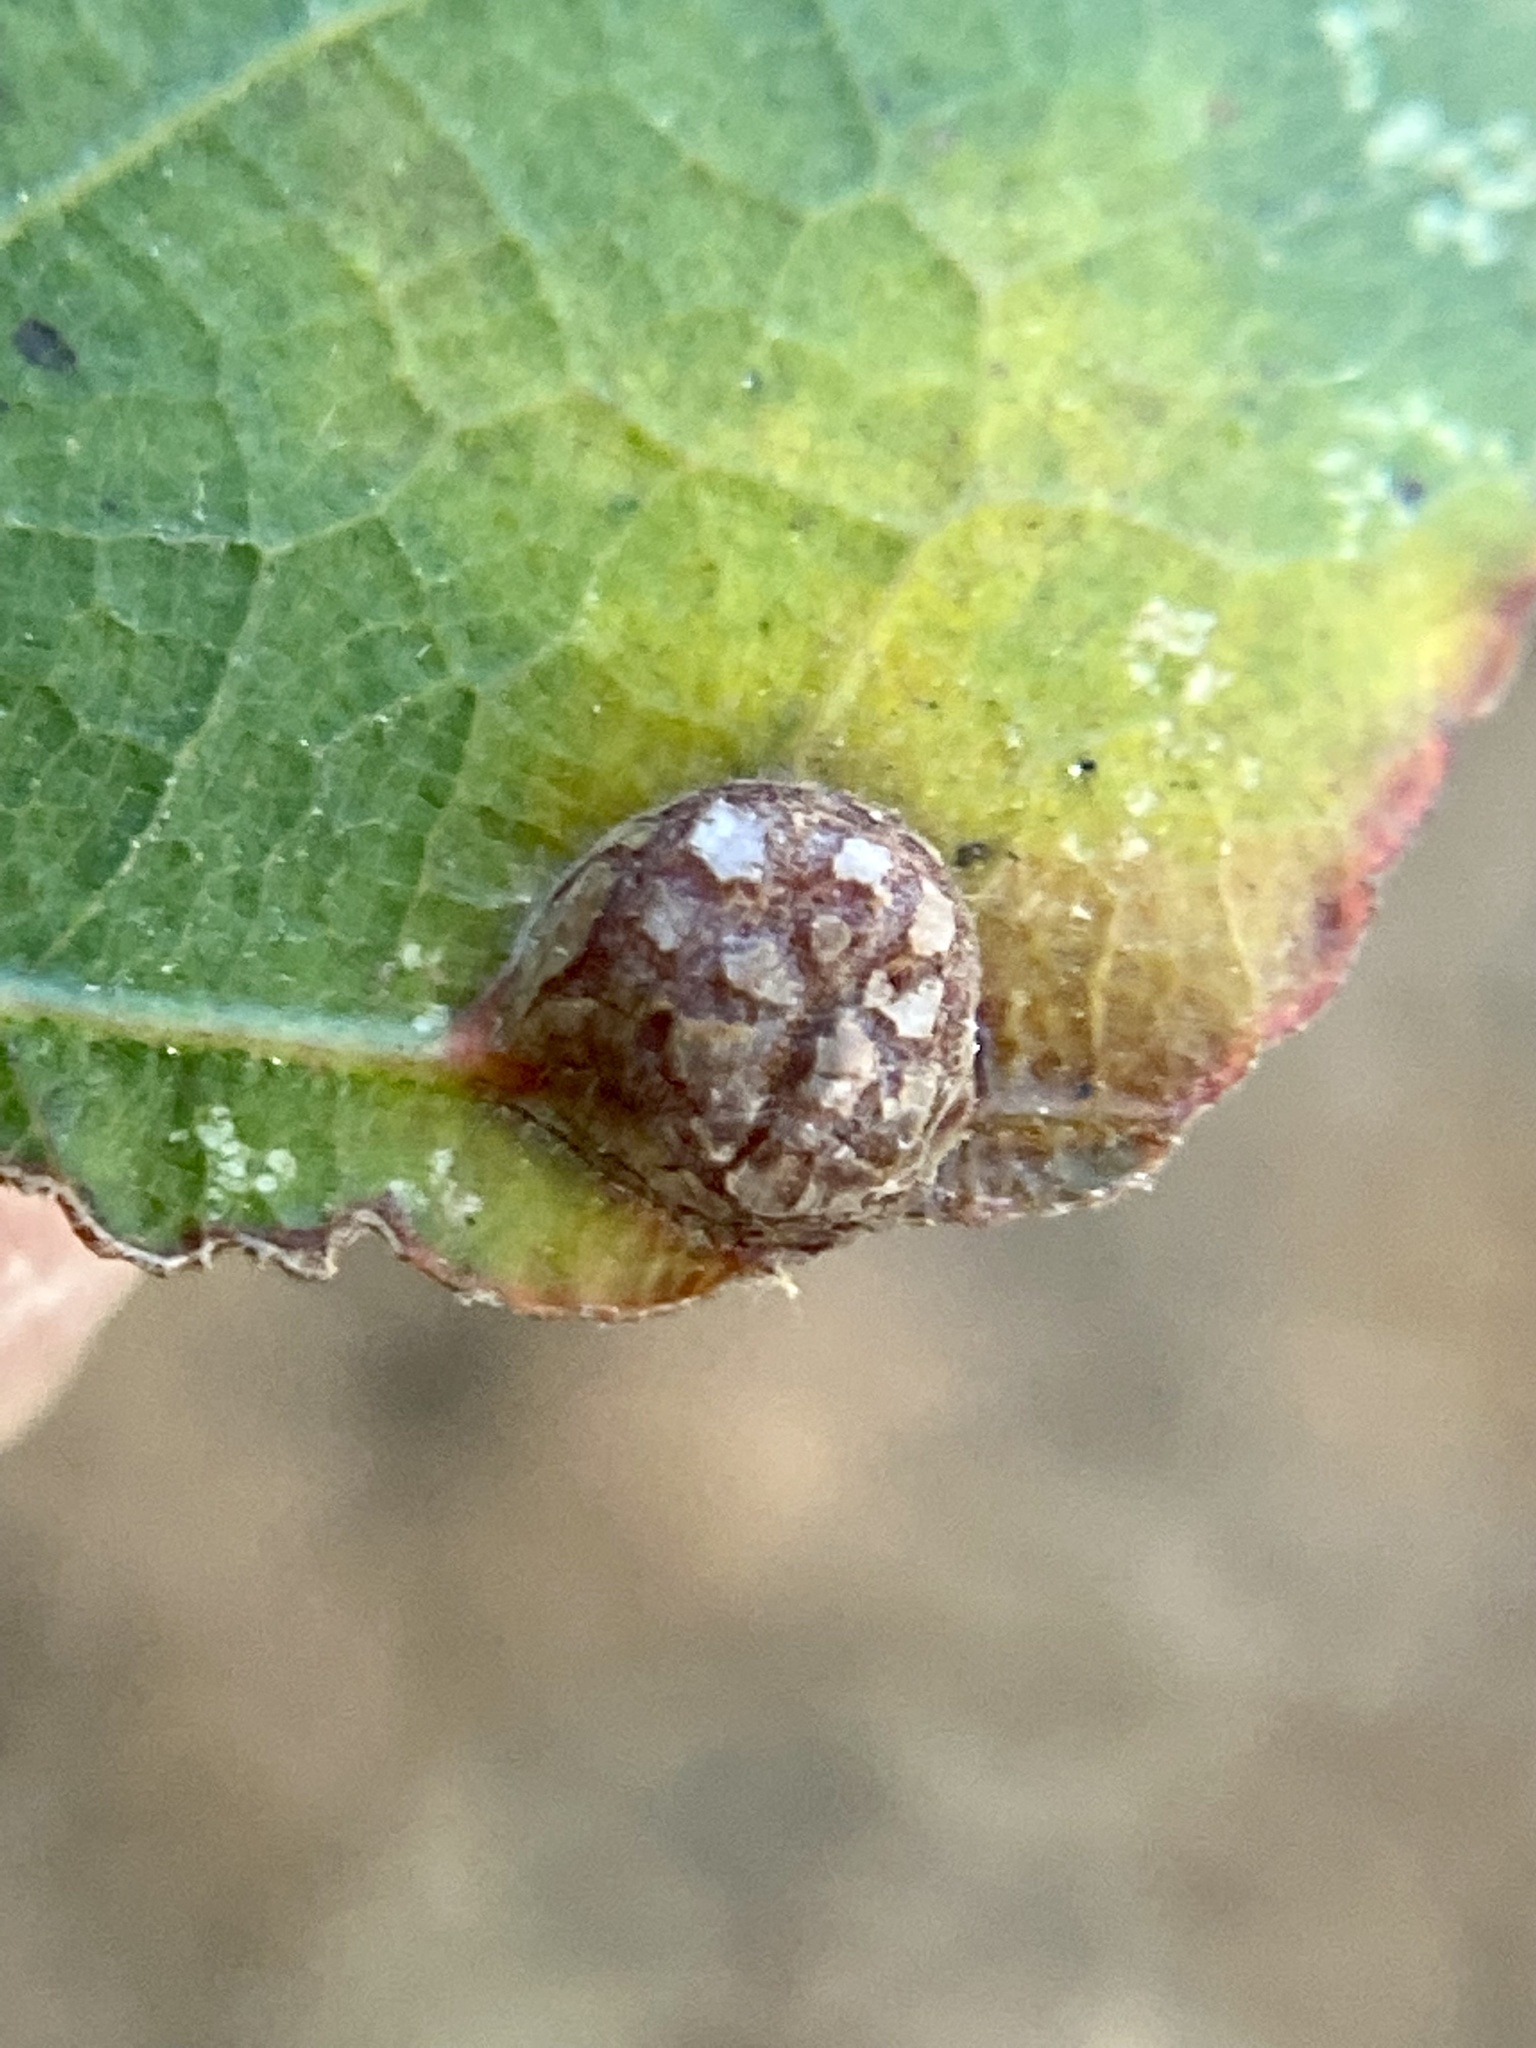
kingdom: Animalia
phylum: Arthropoda
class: Insecta
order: Diptera
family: Cecidomyiidae
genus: Polystepha
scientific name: Polystepha pilulae
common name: Oak leaf gall midge
